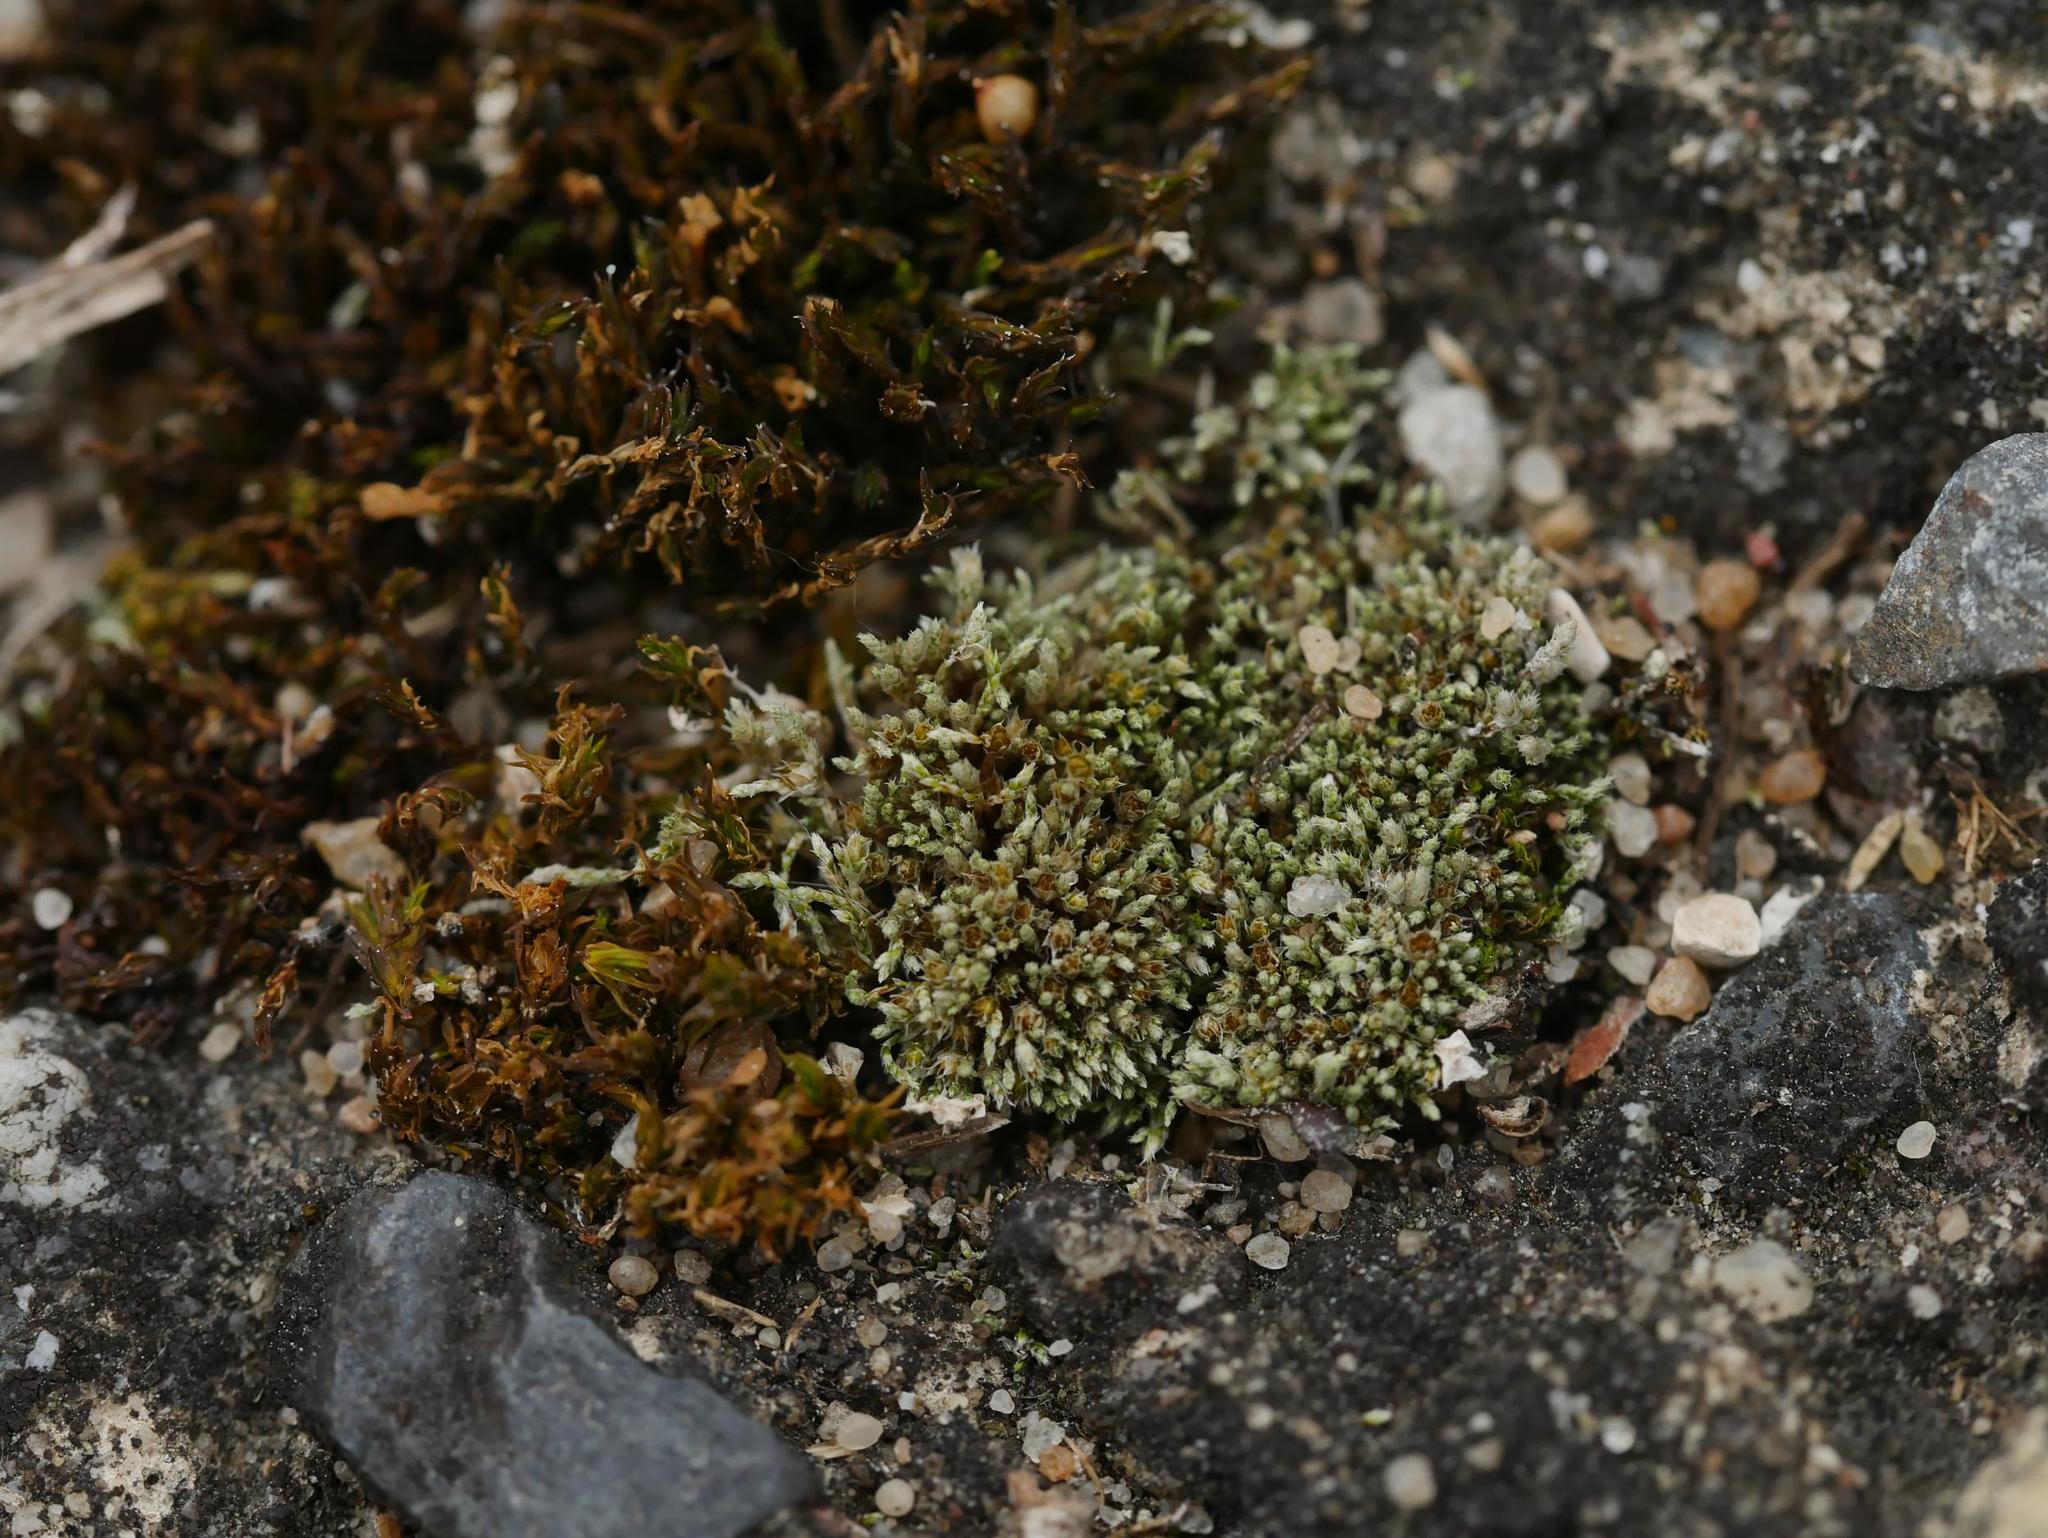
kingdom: Plantae
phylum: Bryophyta
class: Bryopsida
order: Bryales
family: Bryaceae
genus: Bryum
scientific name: Bryum argenteum
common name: Silver-moss
